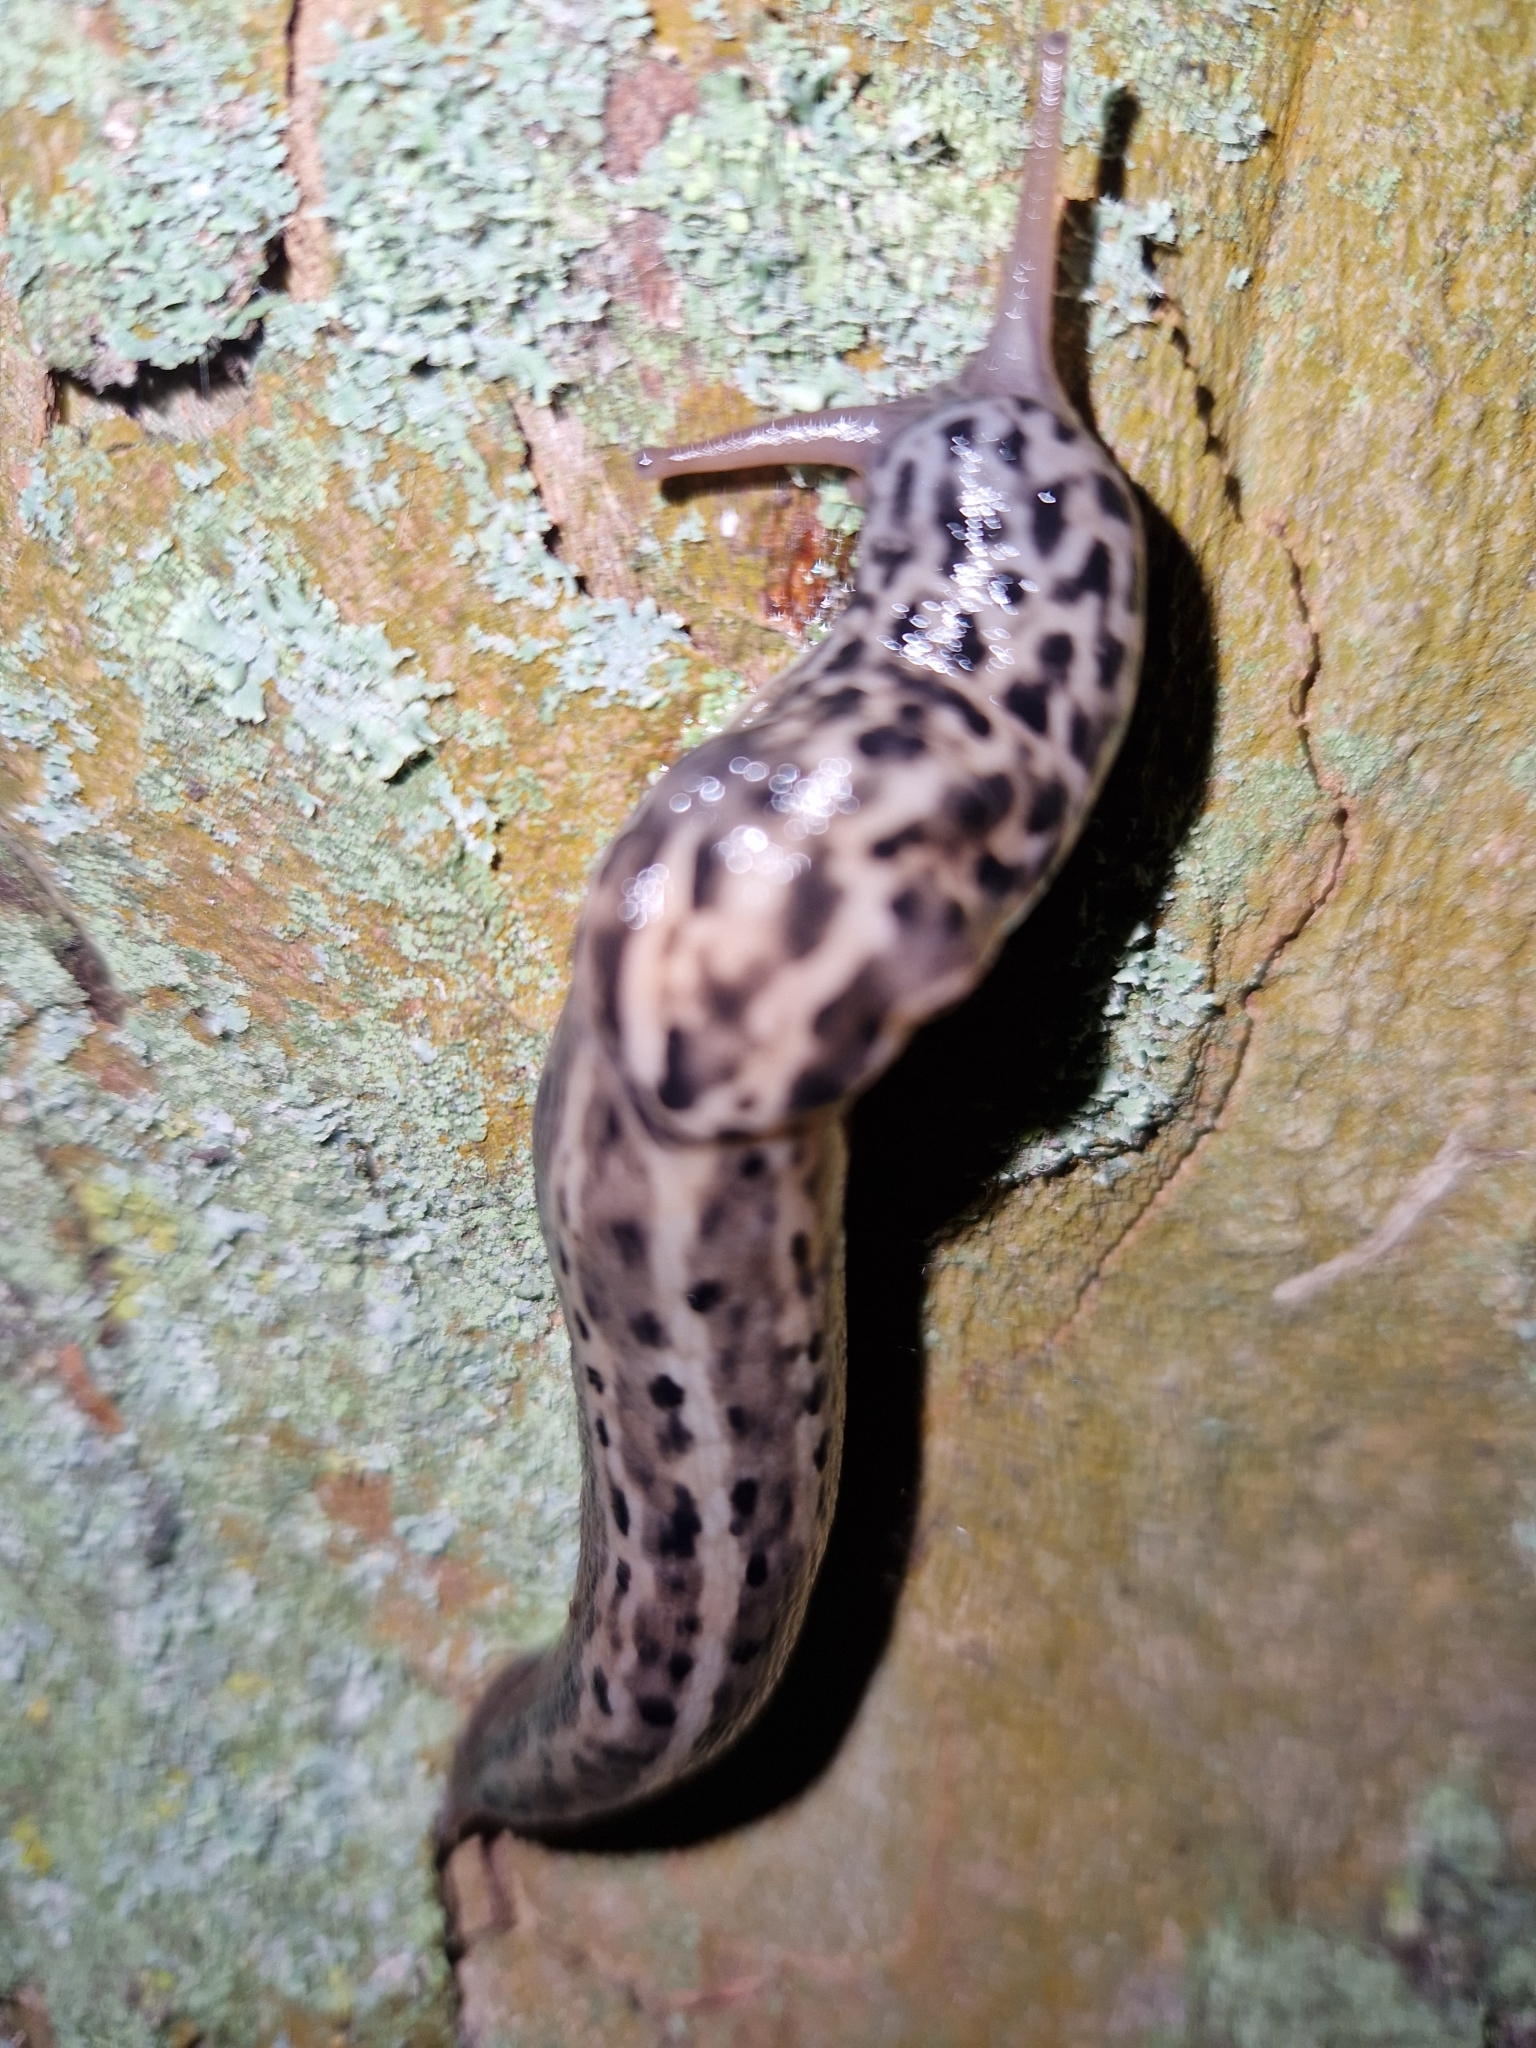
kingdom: Animalia
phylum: Mollusca
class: Gastropoda
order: Stylommatophora
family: Limacidae
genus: Limax
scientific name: Limax maximus
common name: Great grey slug
